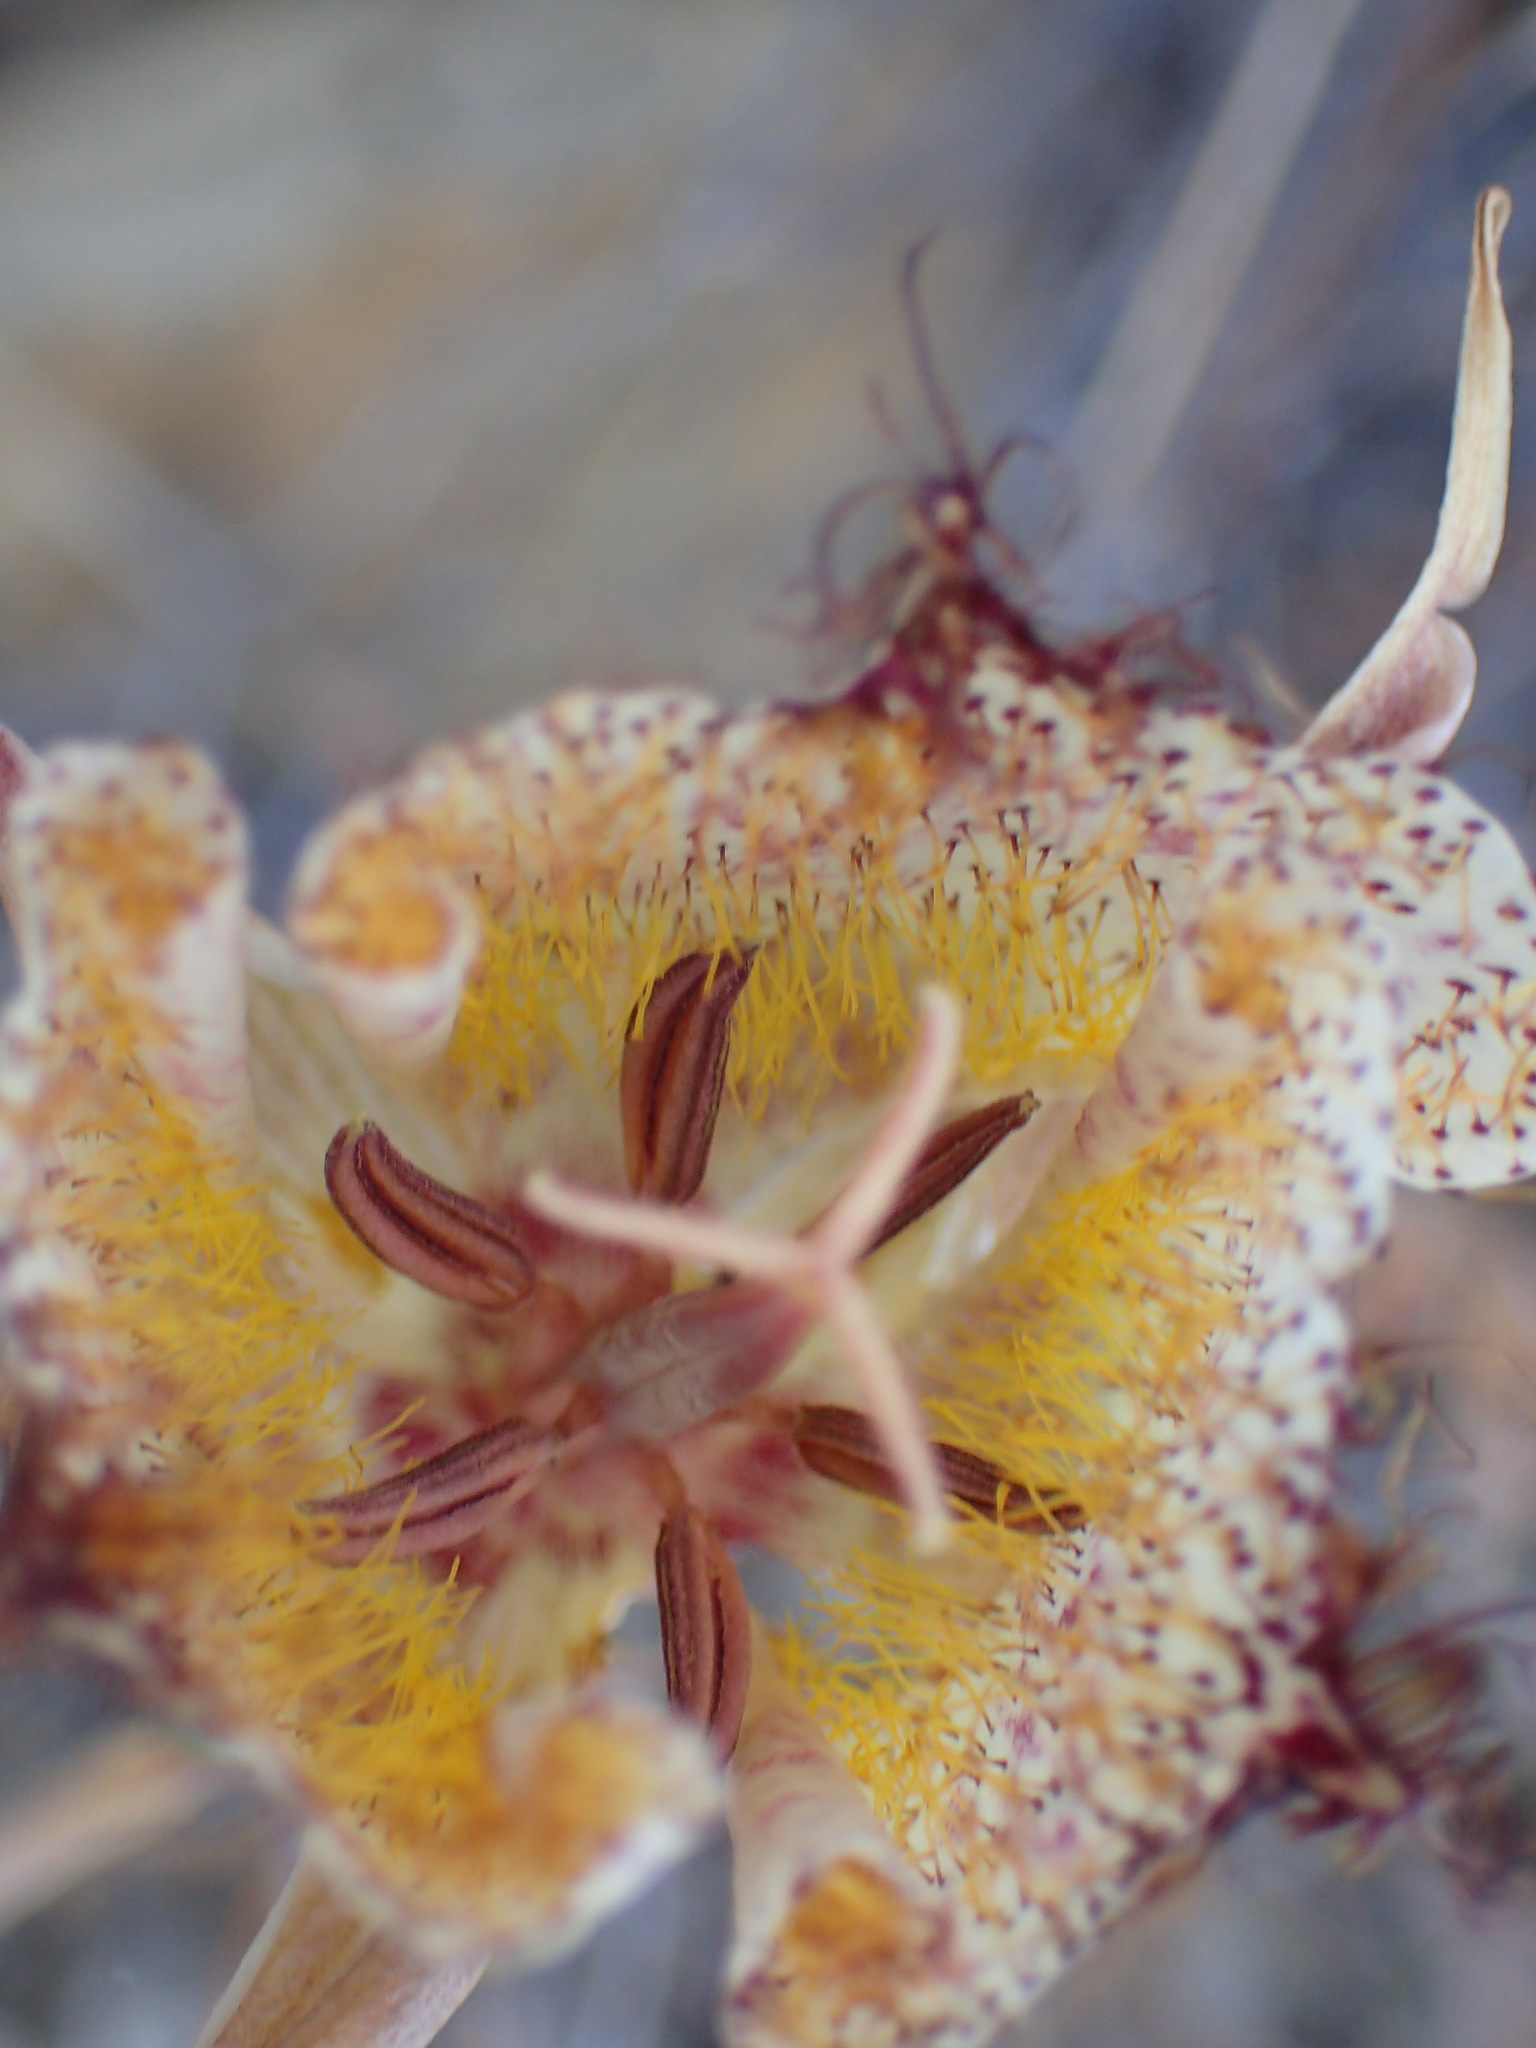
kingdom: Plantae
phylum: Tracheophyta
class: Liliopsida
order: Liliales
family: Liliaceae
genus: Calochortus
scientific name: Calochortus fimbriatus
